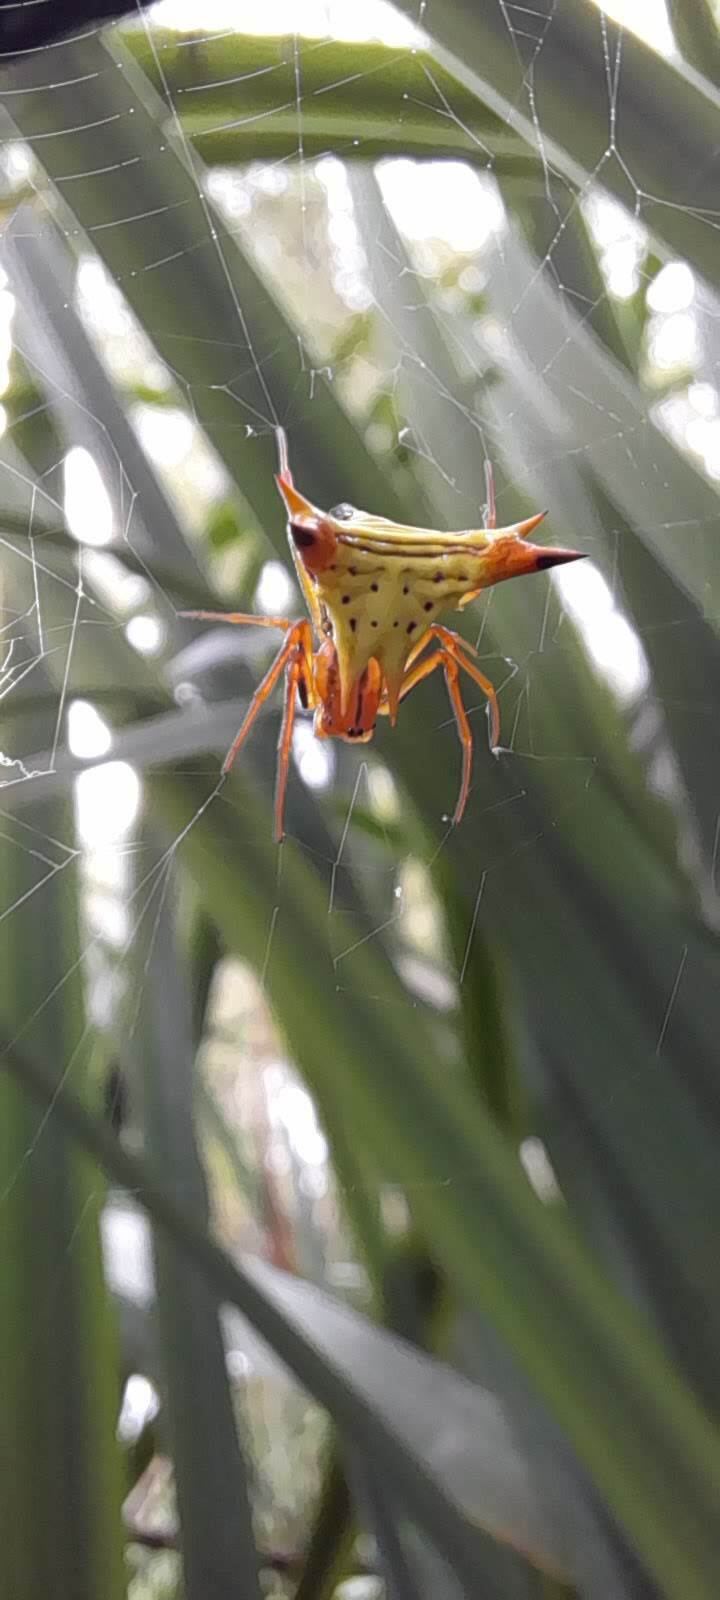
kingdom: Animalia
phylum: Arthropoda
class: Arachnida
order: Araneae
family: Araneidae
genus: Micrathena
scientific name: Micrathena furcata
